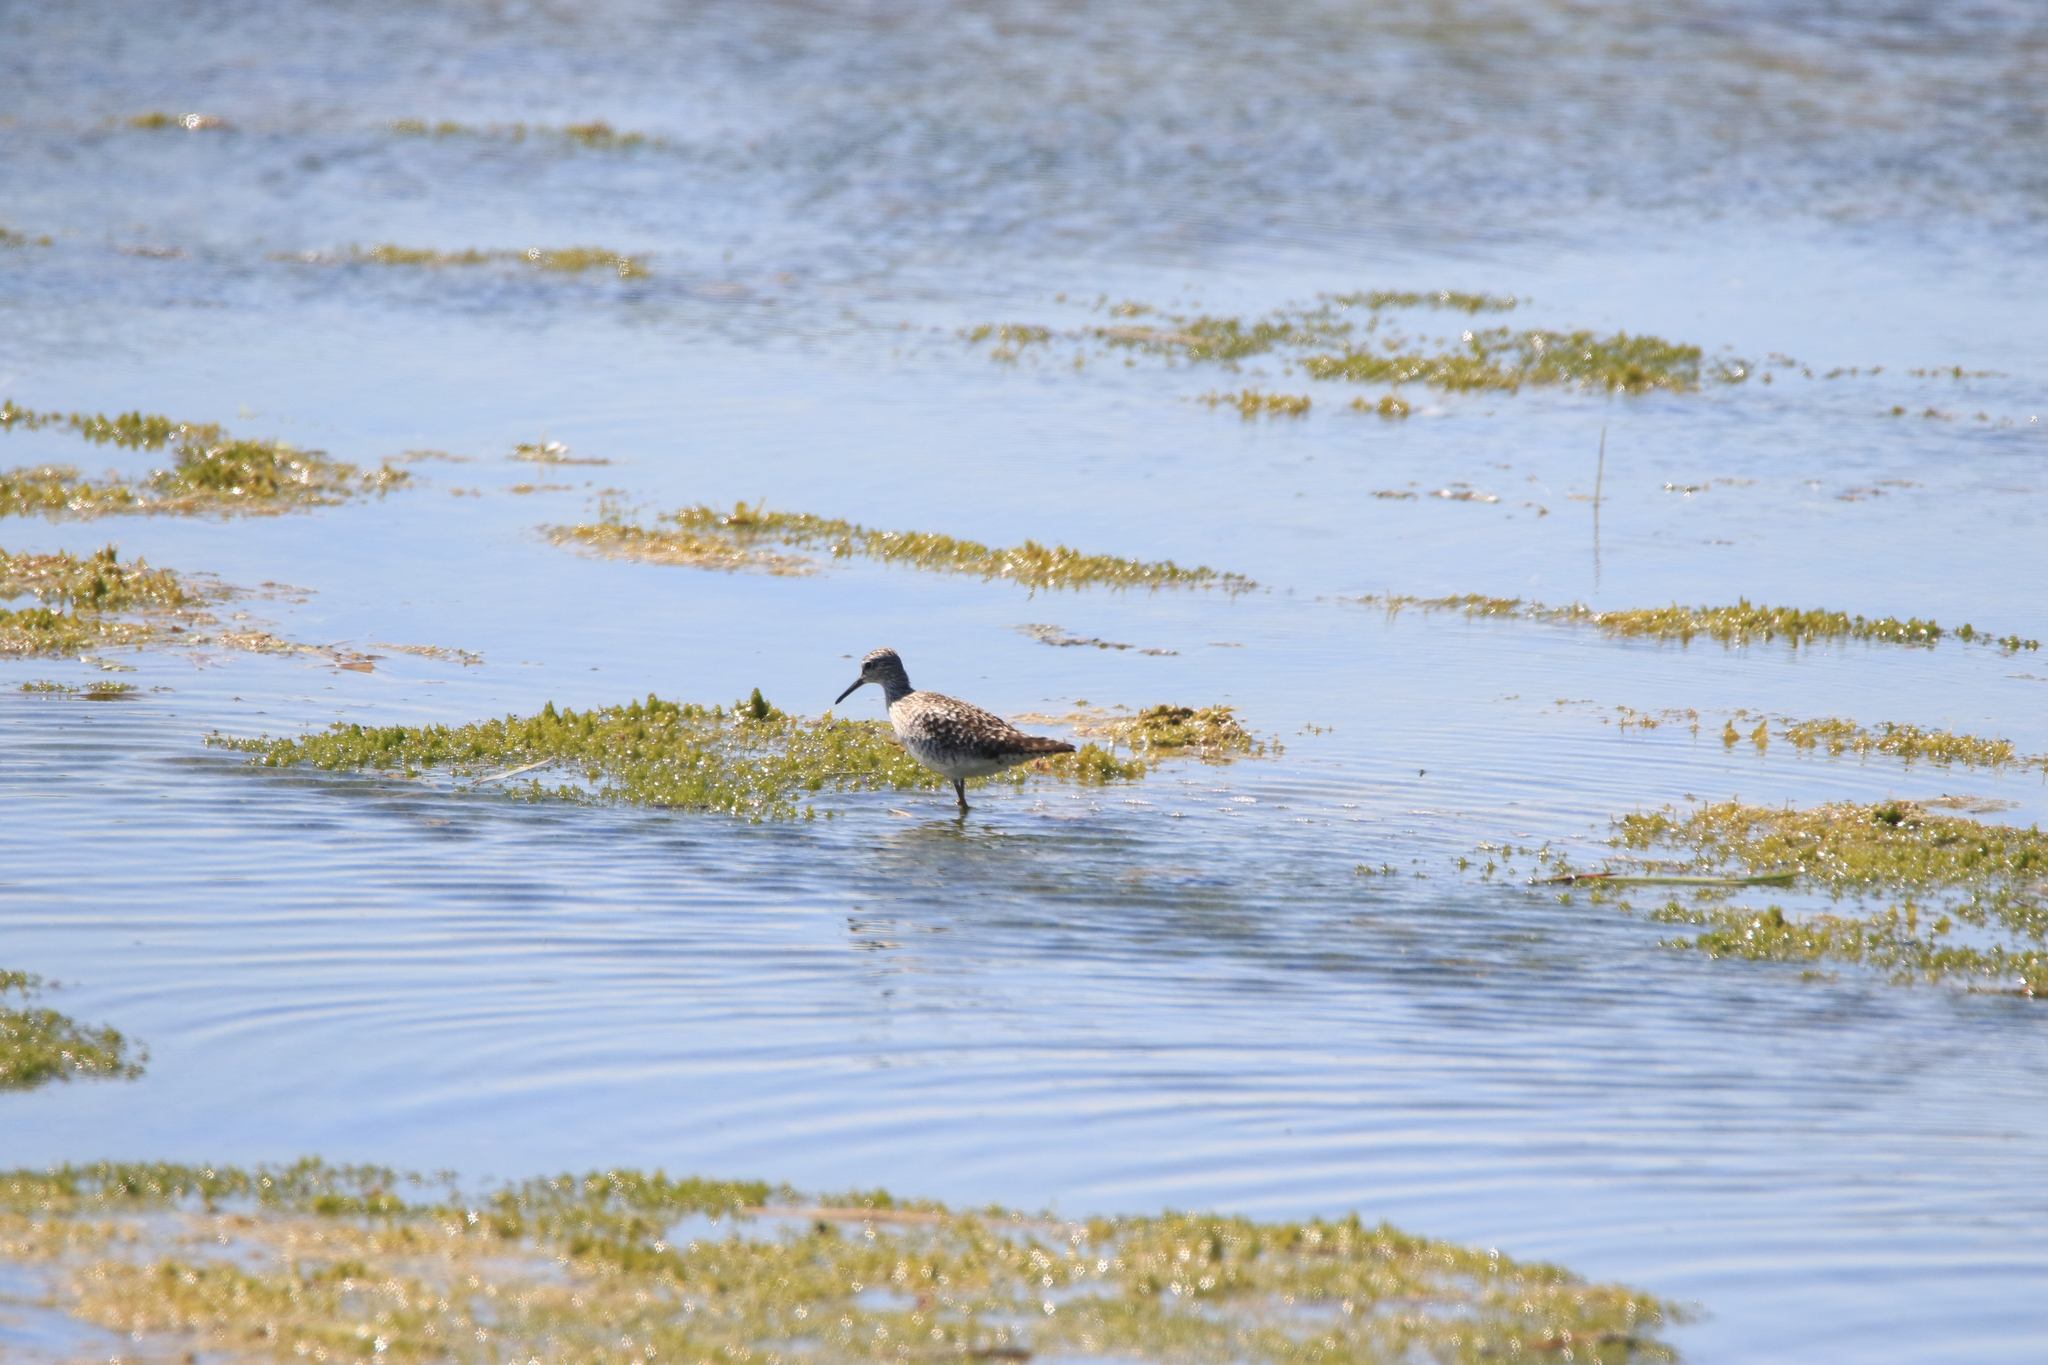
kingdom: Animalia
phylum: Chordata
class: Aves
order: Charadriiformes
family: Scolopacidae
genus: Tringa
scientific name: Tringa stagnatilis
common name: Marsh sandpiper
